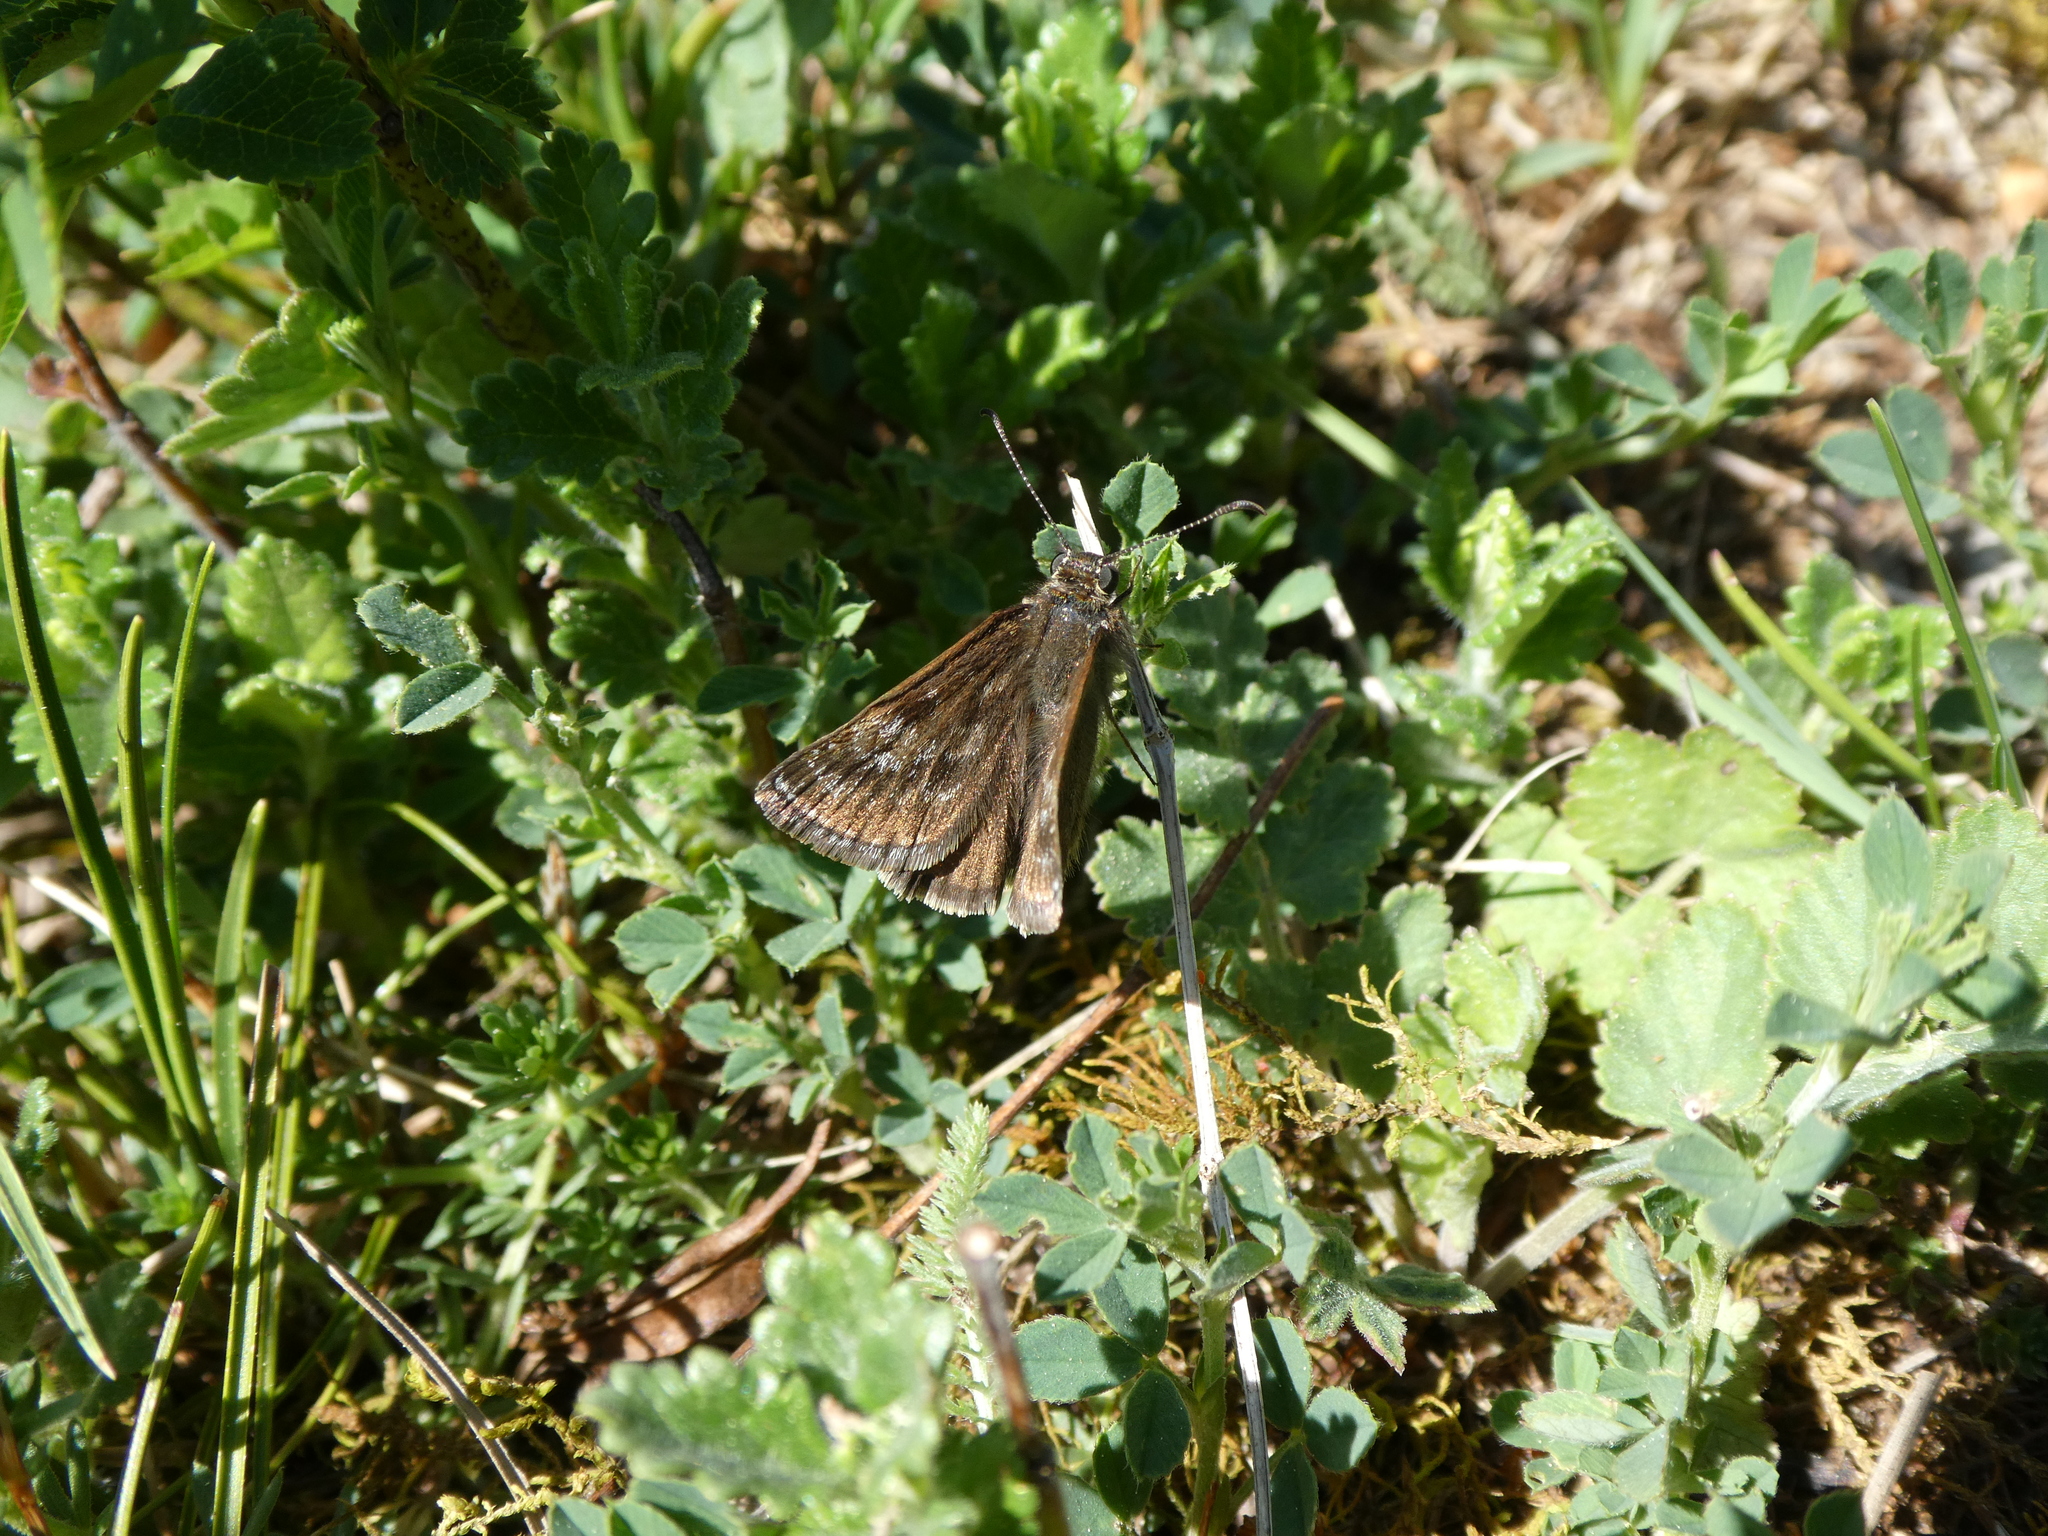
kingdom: Animalia
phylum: Arthropoda
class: Insecta
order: Lepidoptera
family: Hesperiidae
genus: Erynnis
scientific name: Erynnis tages
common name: Dingy skipper
